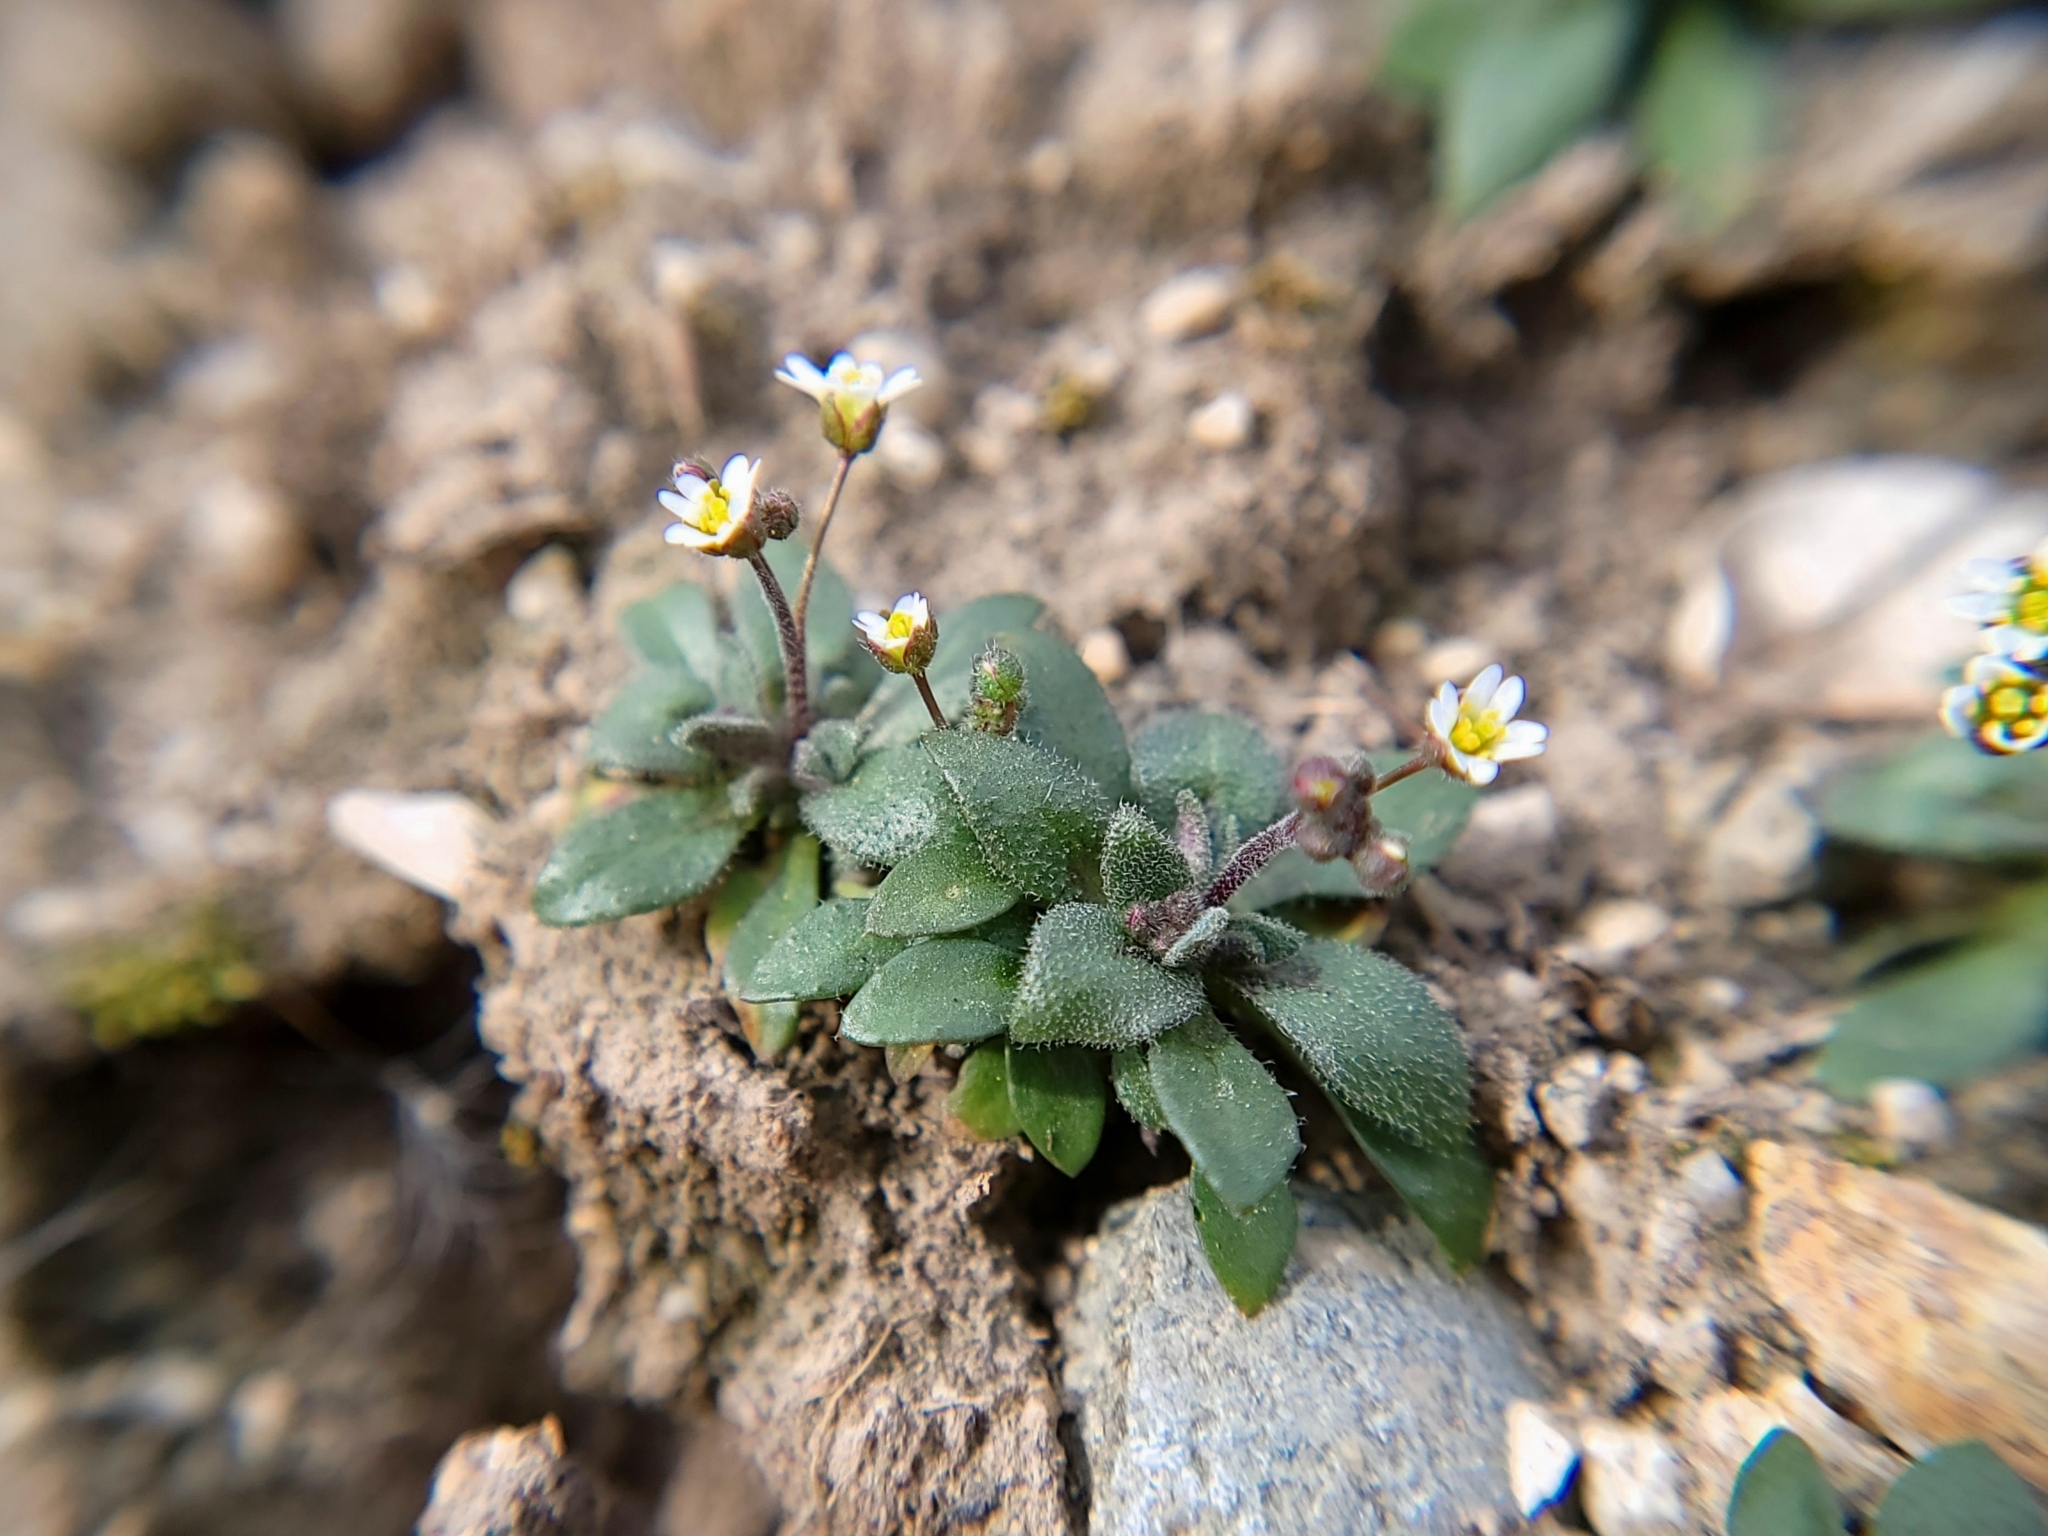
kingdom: Plantae
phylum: Tracheophyta
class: Magnoliopsida
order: Brassicales
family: Brassicaceae
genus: Draba
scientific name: Draba verna
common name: Spring draba
